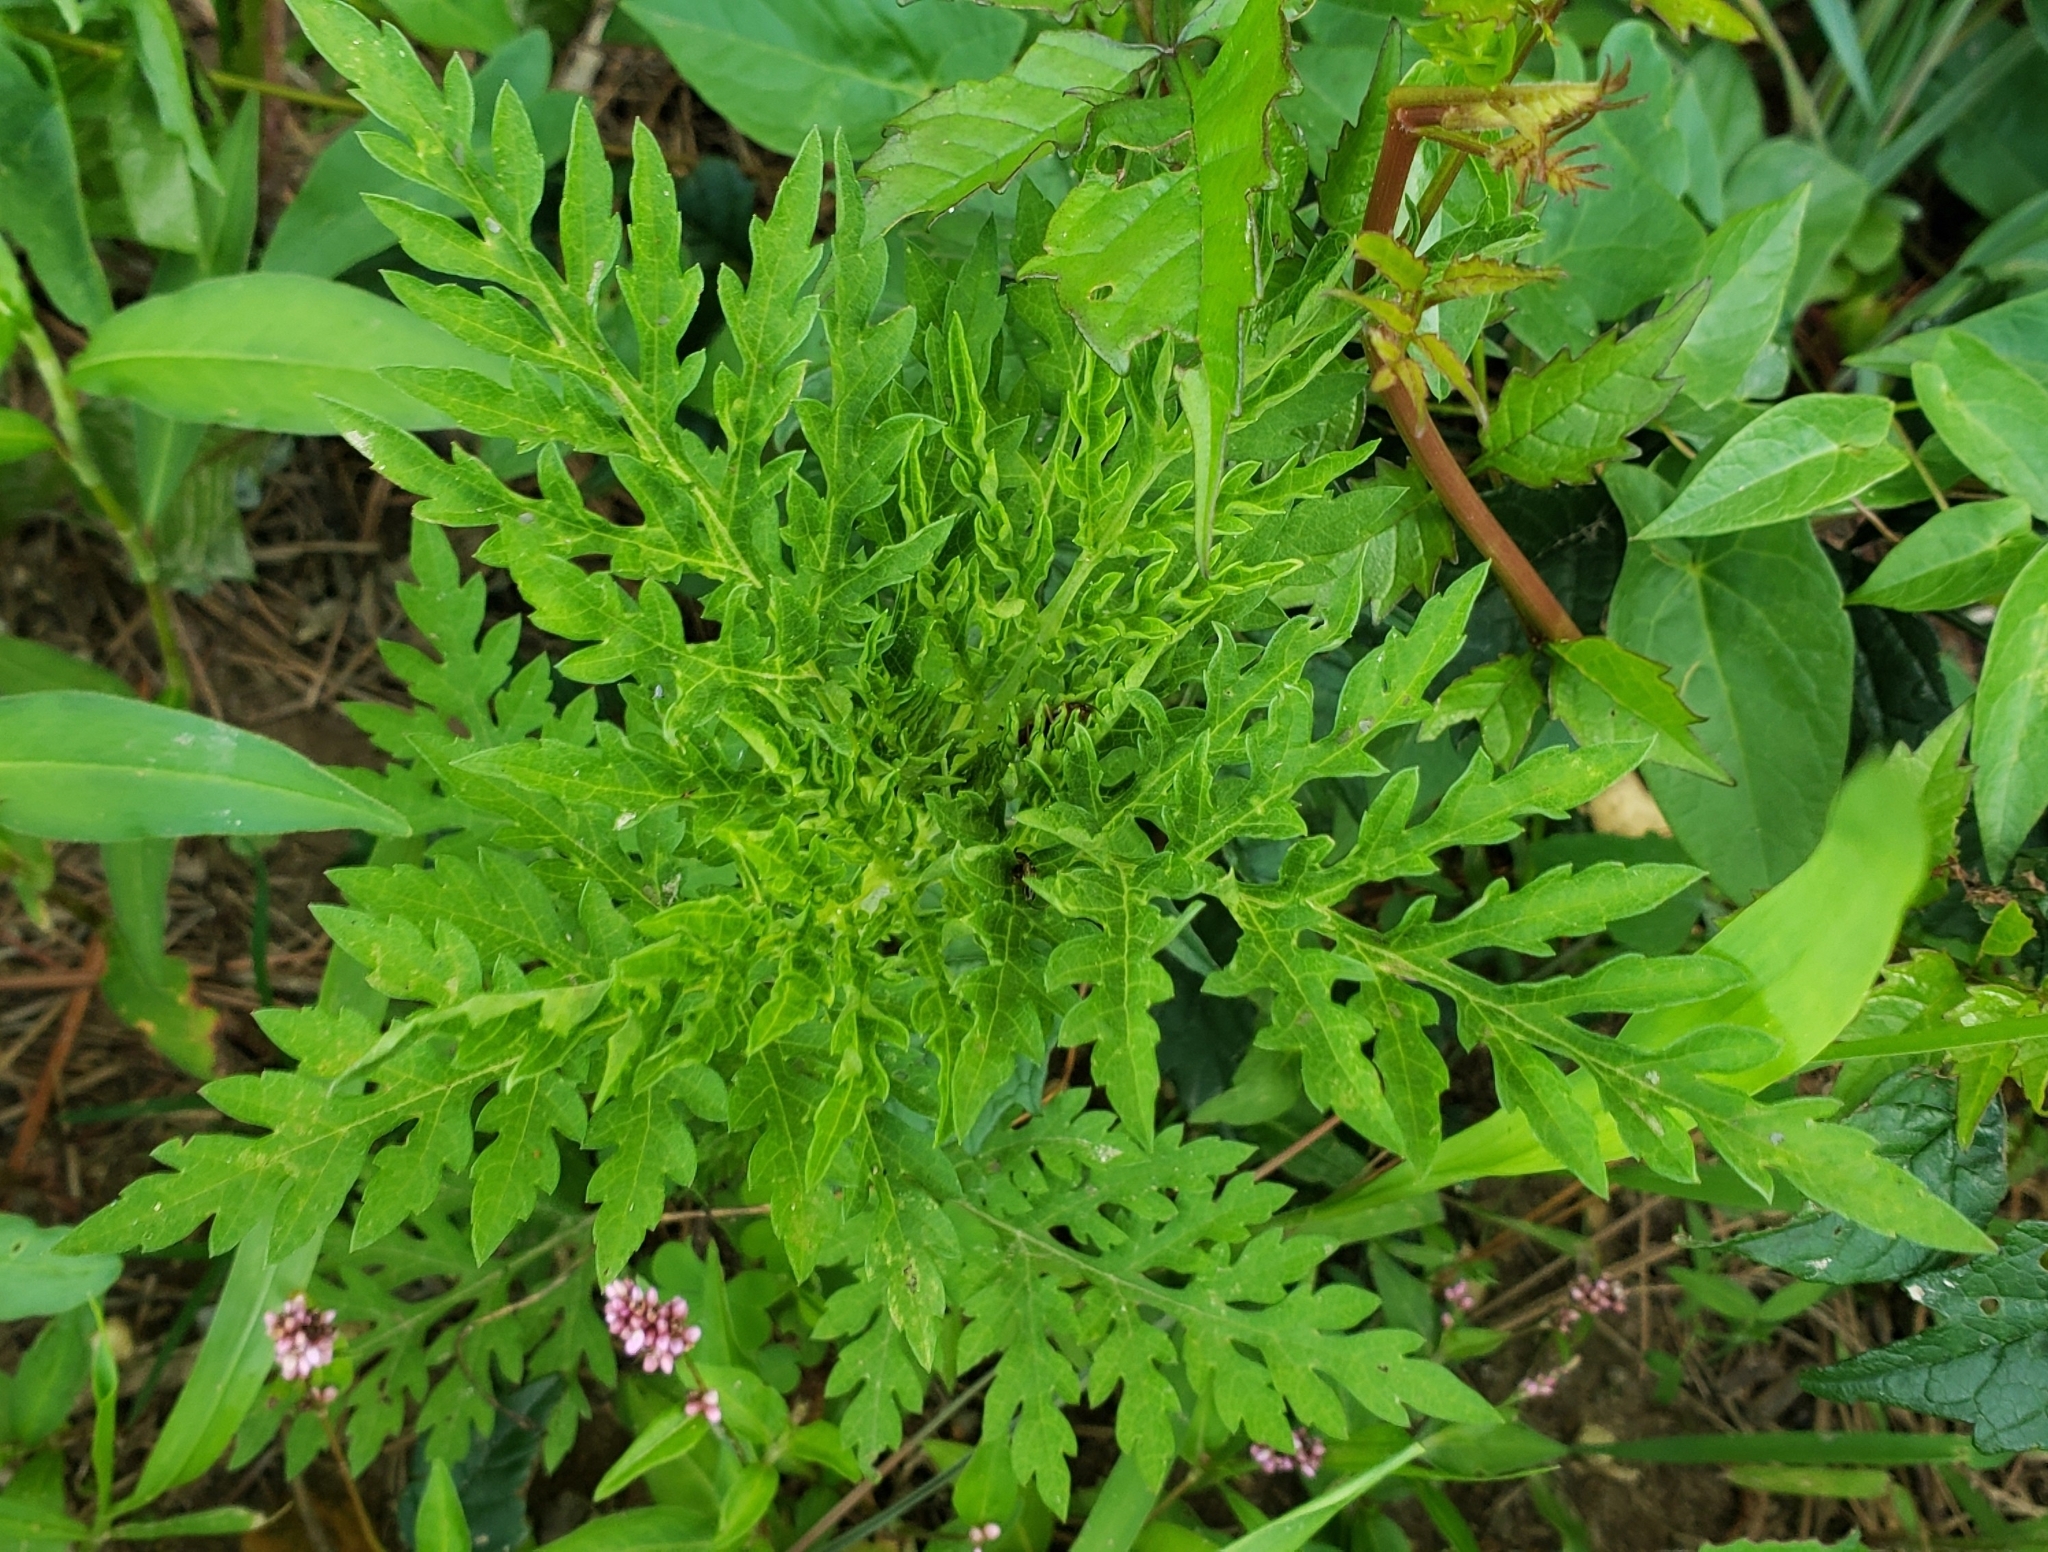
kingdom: Plantae
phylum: Tracheophyta
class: Magnoliopsida
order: Asterales
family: Asteraceae
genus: Ambrosia
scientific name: Ambrosia artemisiifolia
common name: Annual ragweed
